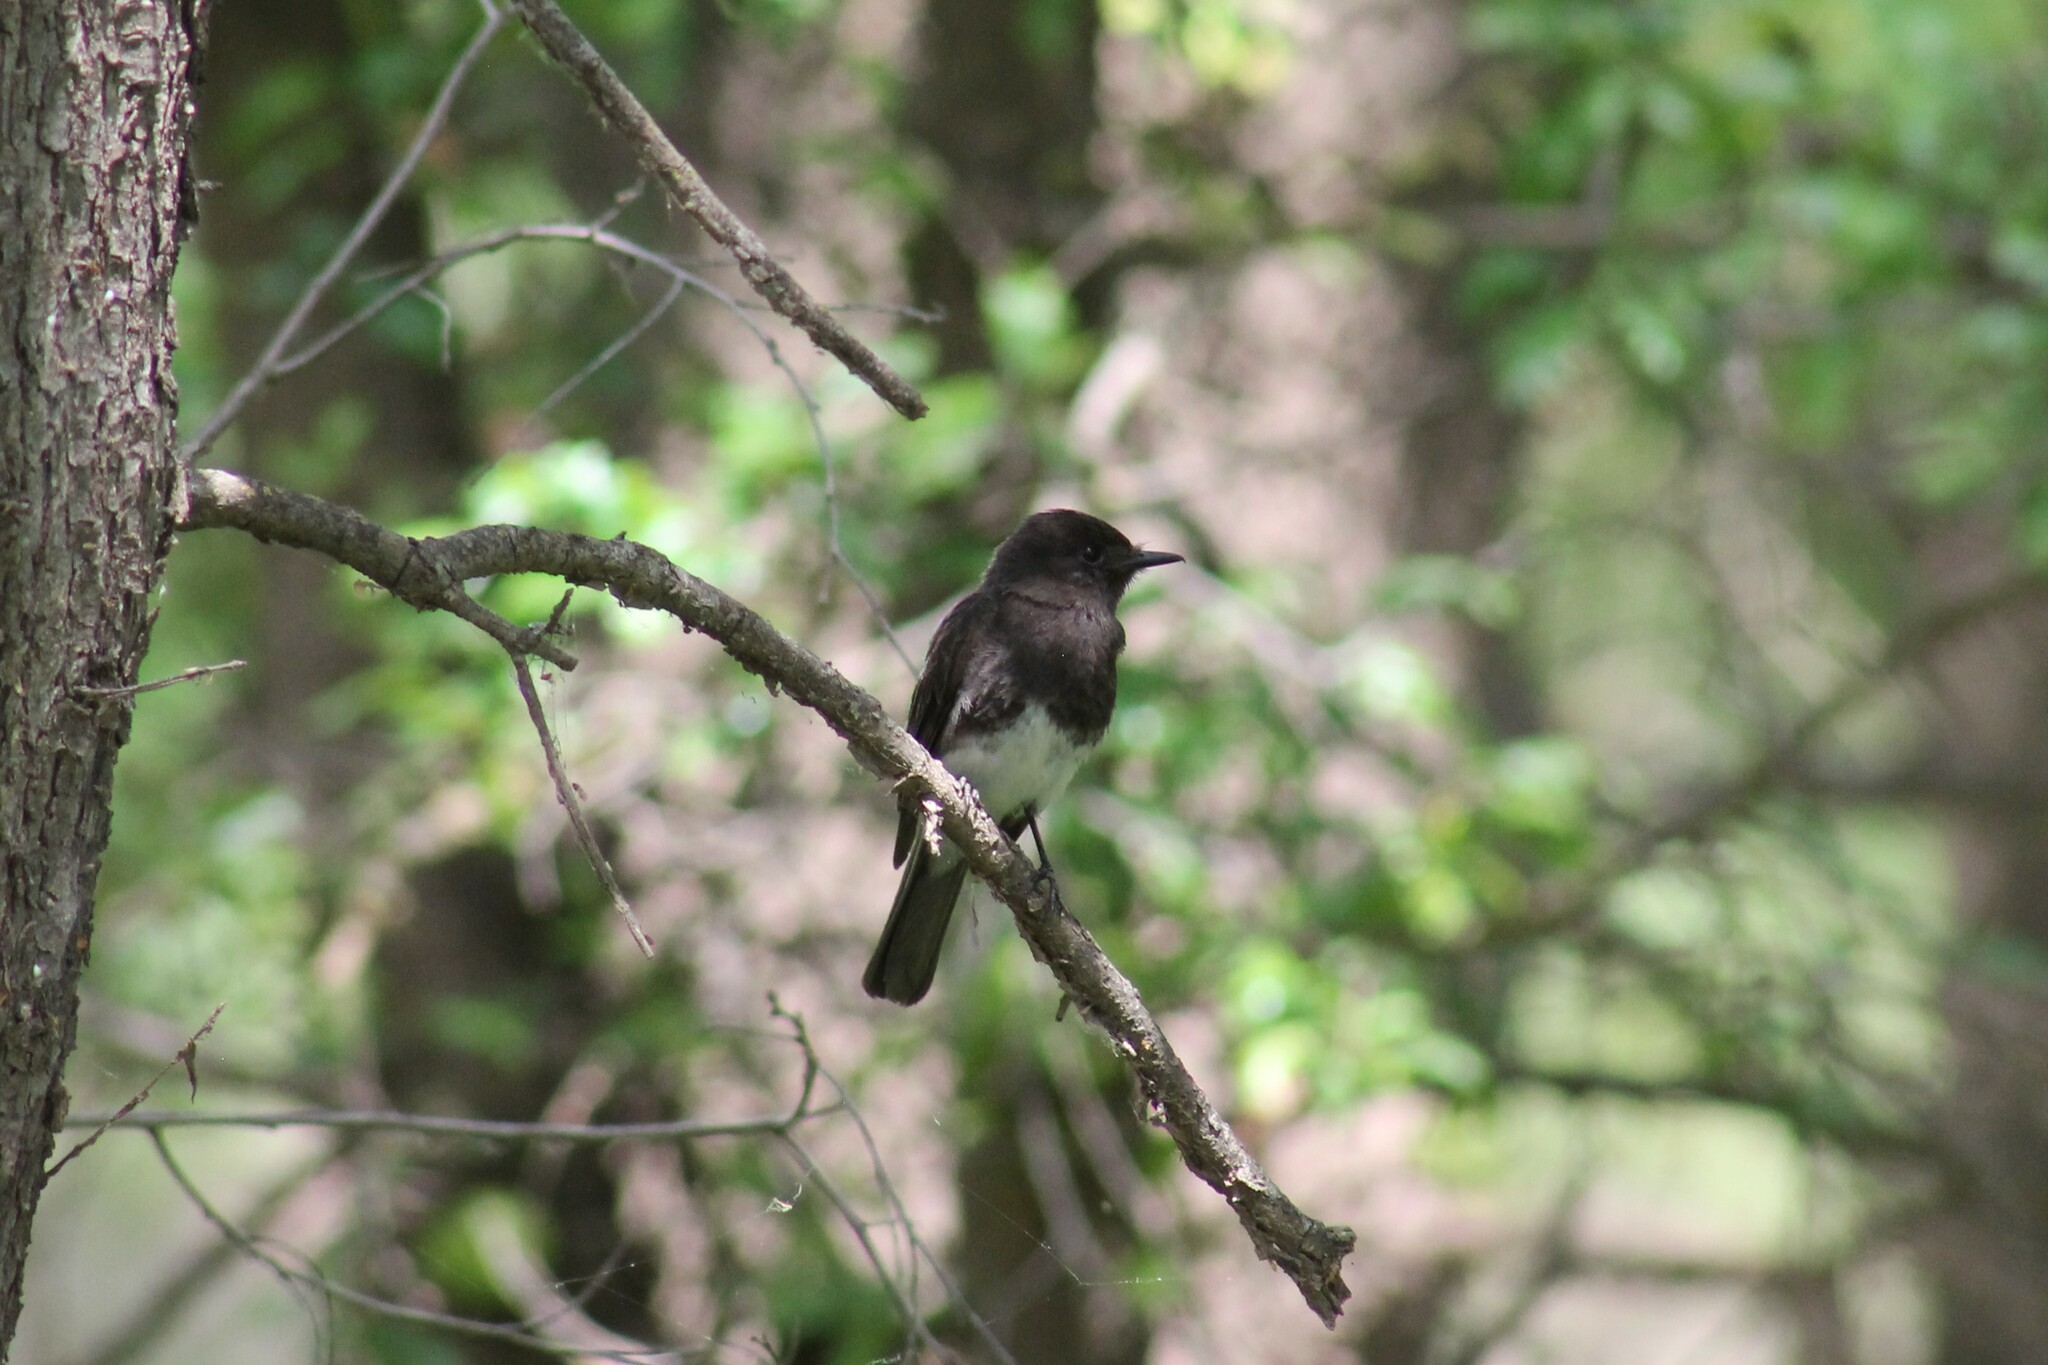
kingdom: Animalia
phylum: Chordata
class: Aves
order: Passeriformes
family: Tyrannidae
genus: Sayornis
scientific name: Sayornis nigricans
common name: Black phoebe
